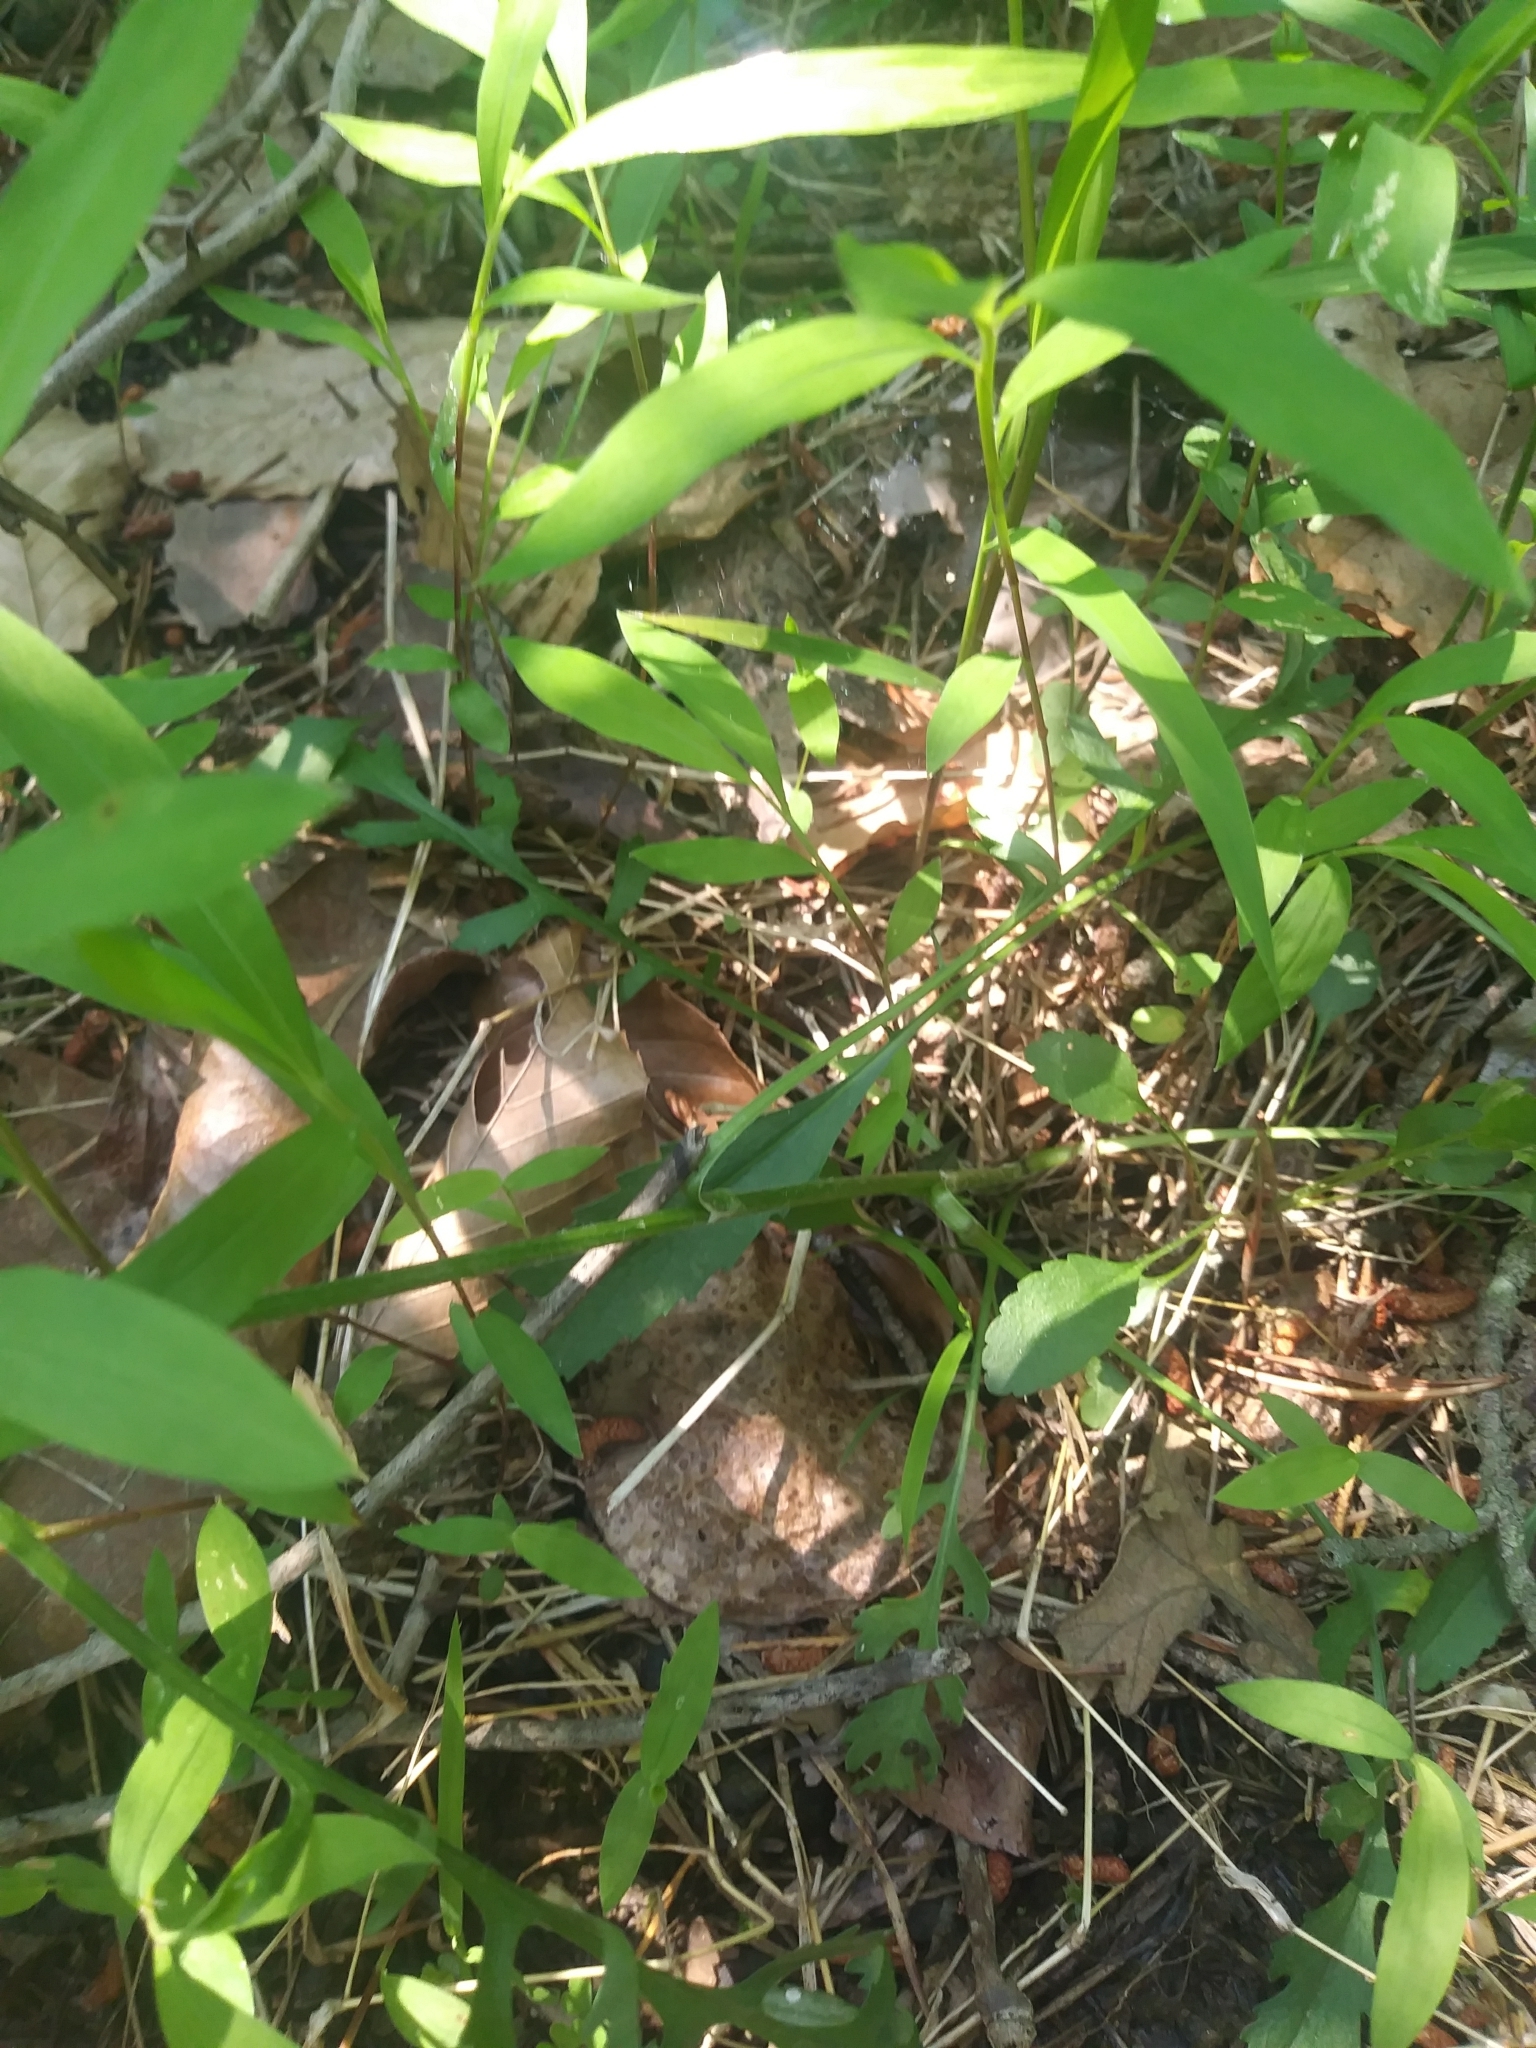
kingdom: Plantae
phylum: Tracheophyta
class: Magnoliopsida
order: Asterales
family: Asteraceae
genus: Packera
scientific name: Packera anonyma
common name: Small ragwort
